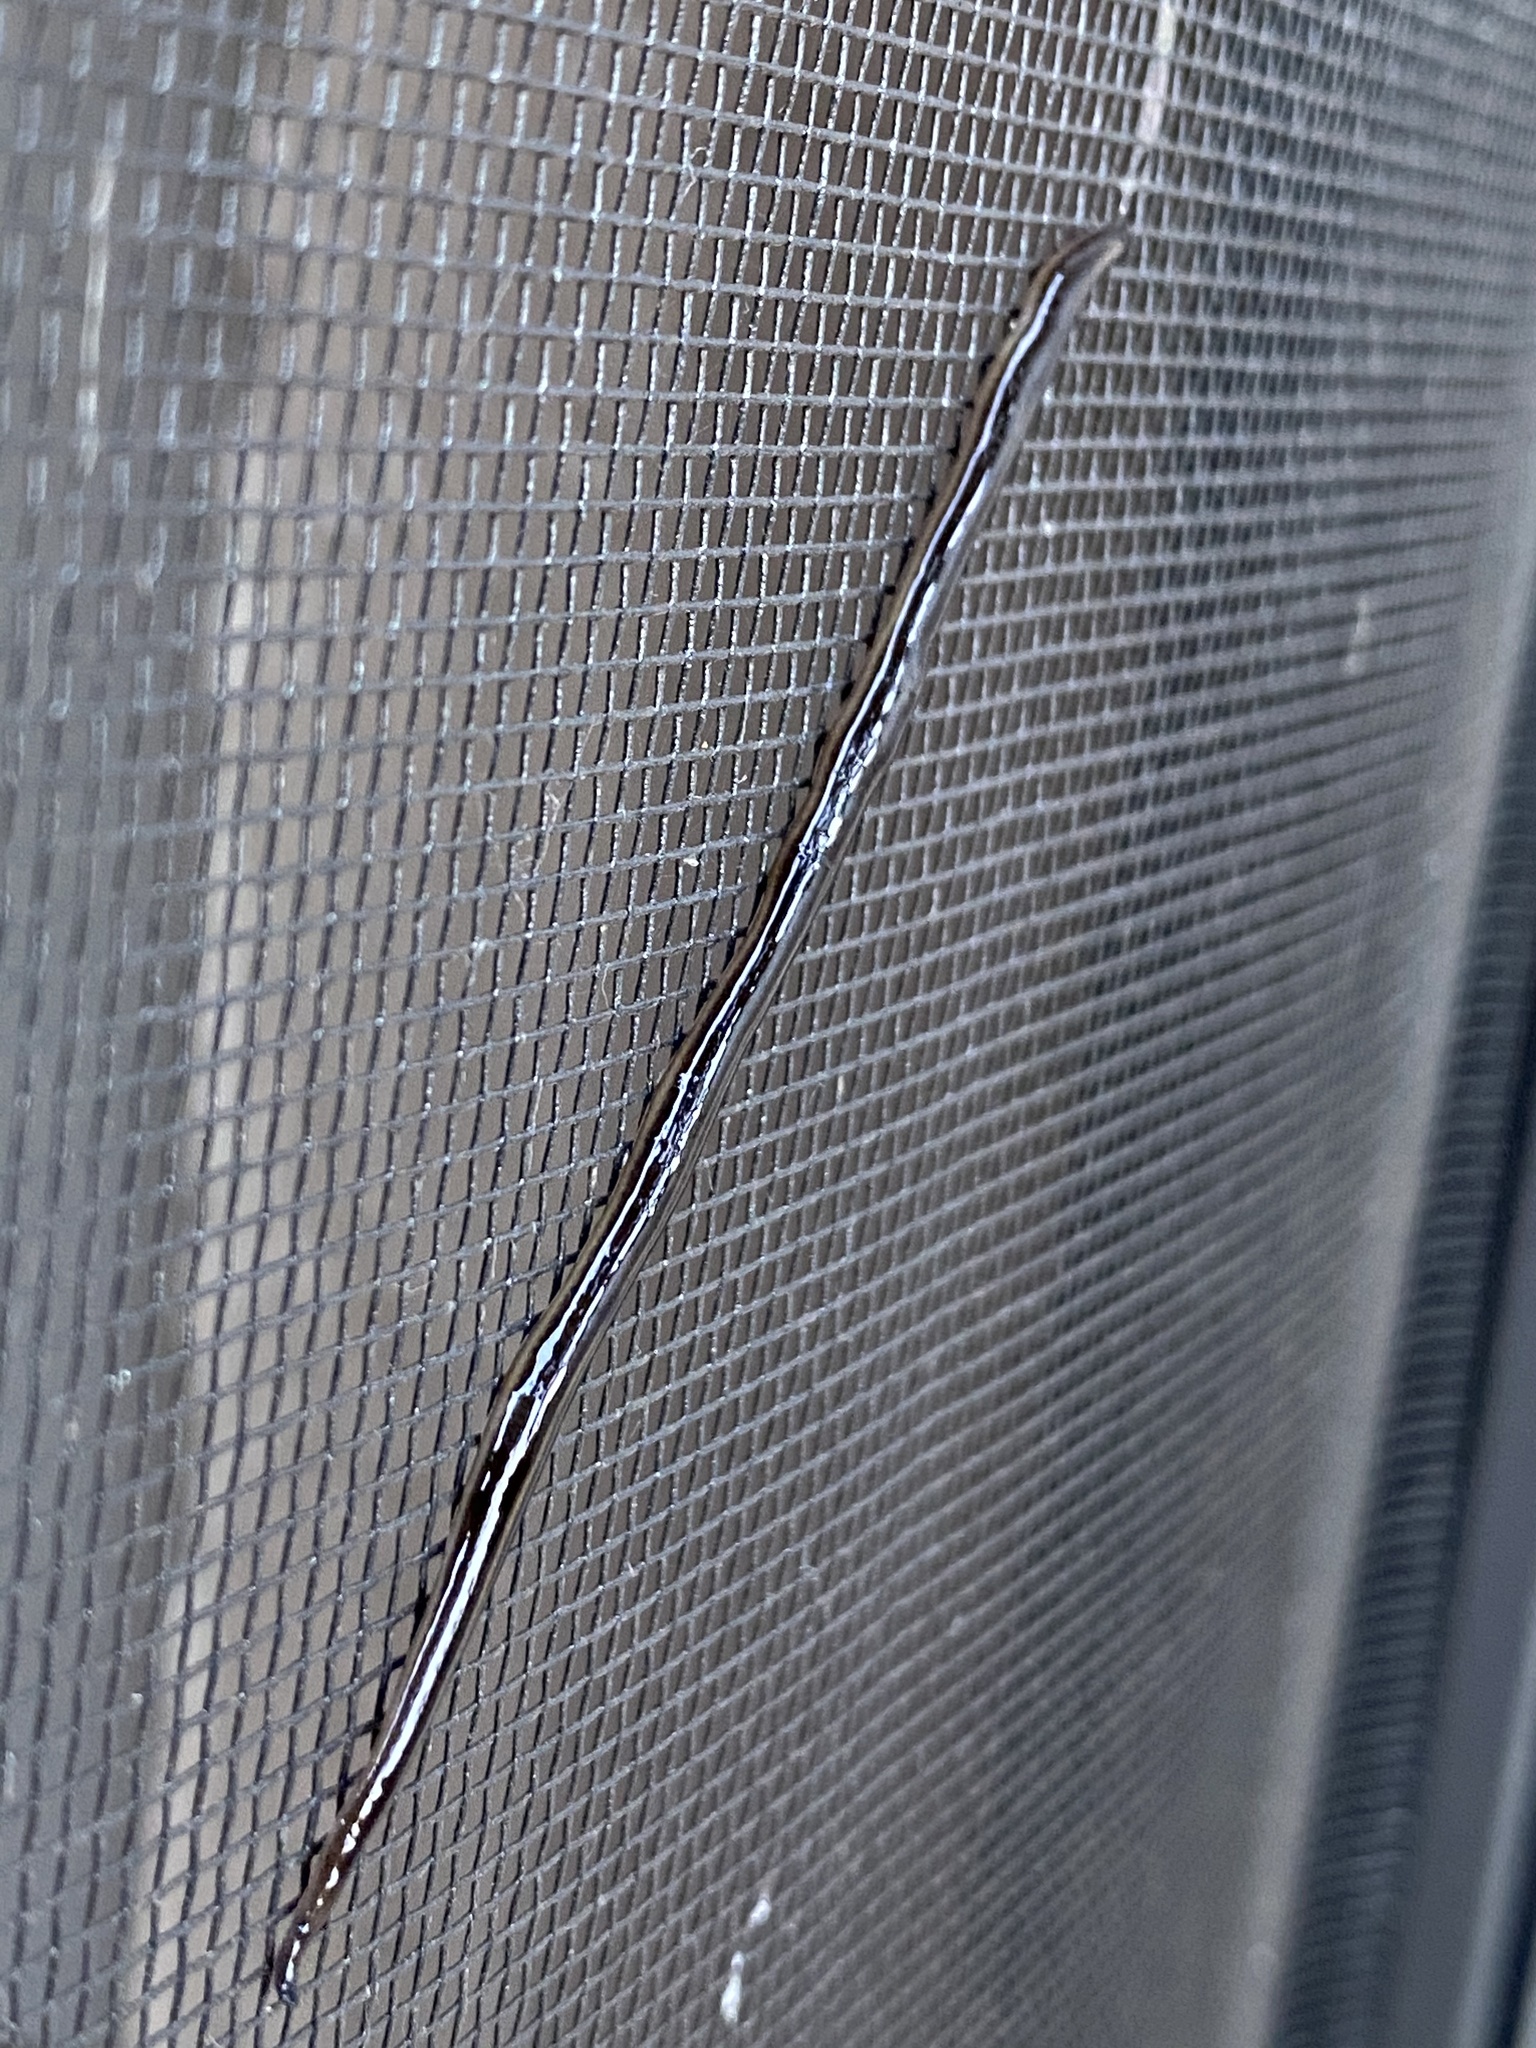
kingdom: Animalia
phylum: Platyhelminthes
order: Tricladida
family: Geoplanidae
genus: Platydemus
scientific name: Platydemus manokwari
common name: New guinea flatworm
